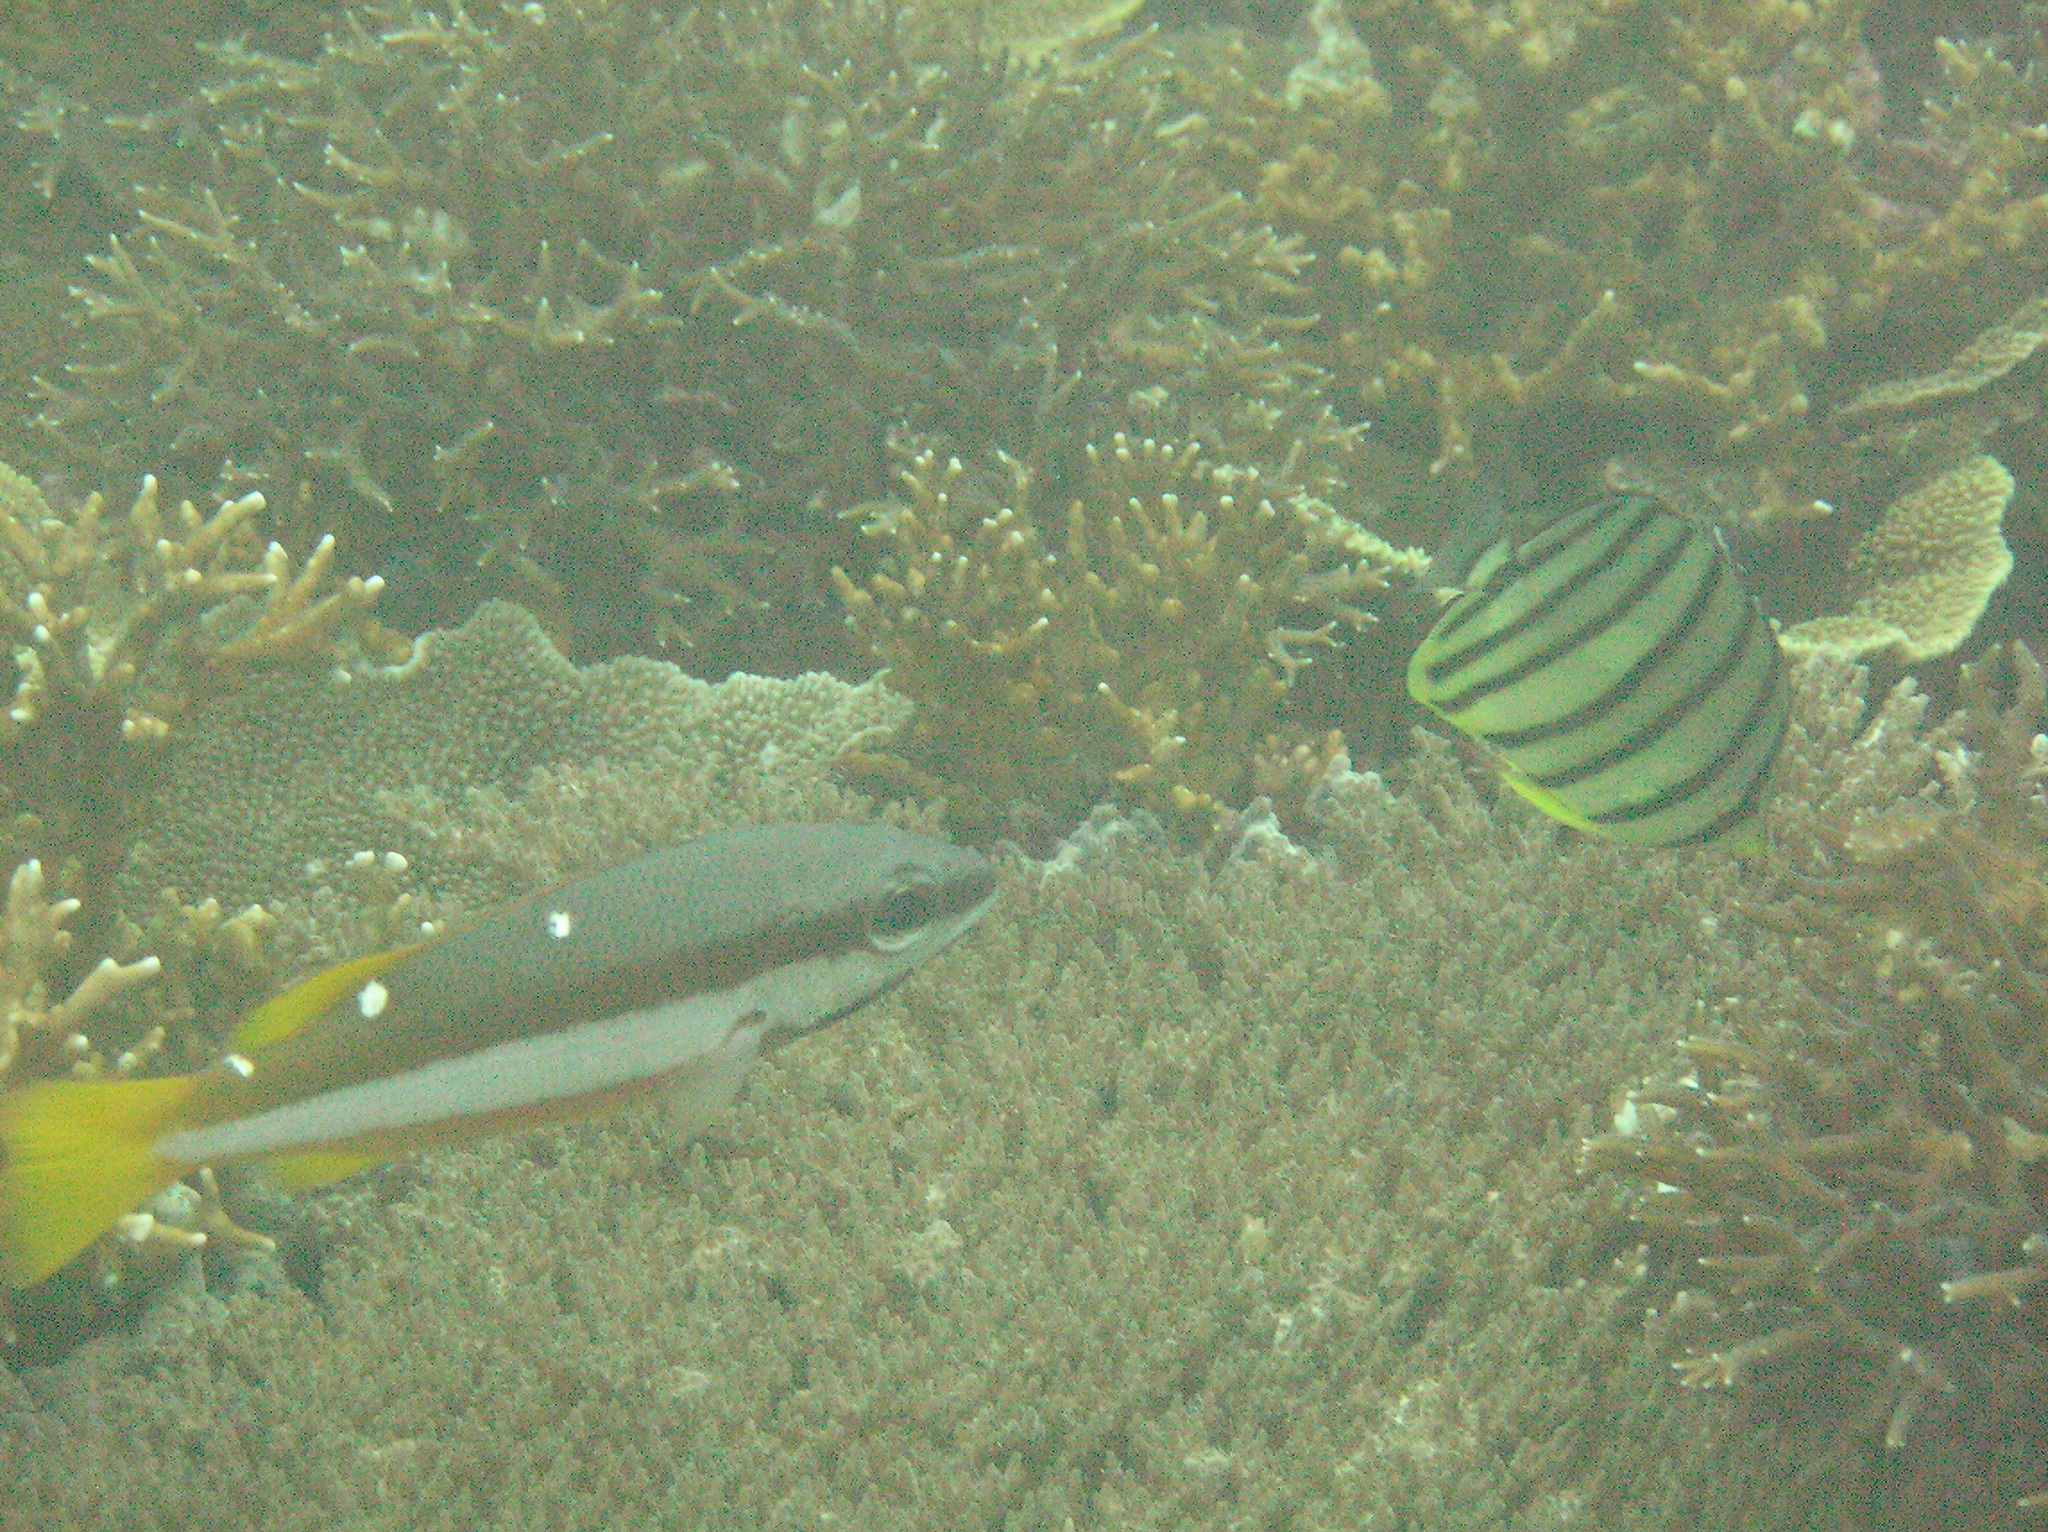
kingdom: Animalia
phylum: Chordata
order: Perciformes
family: Lutjanidae
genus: Lutjanus
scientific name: Lutjanus biguttatus
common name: Two-spot snapper
